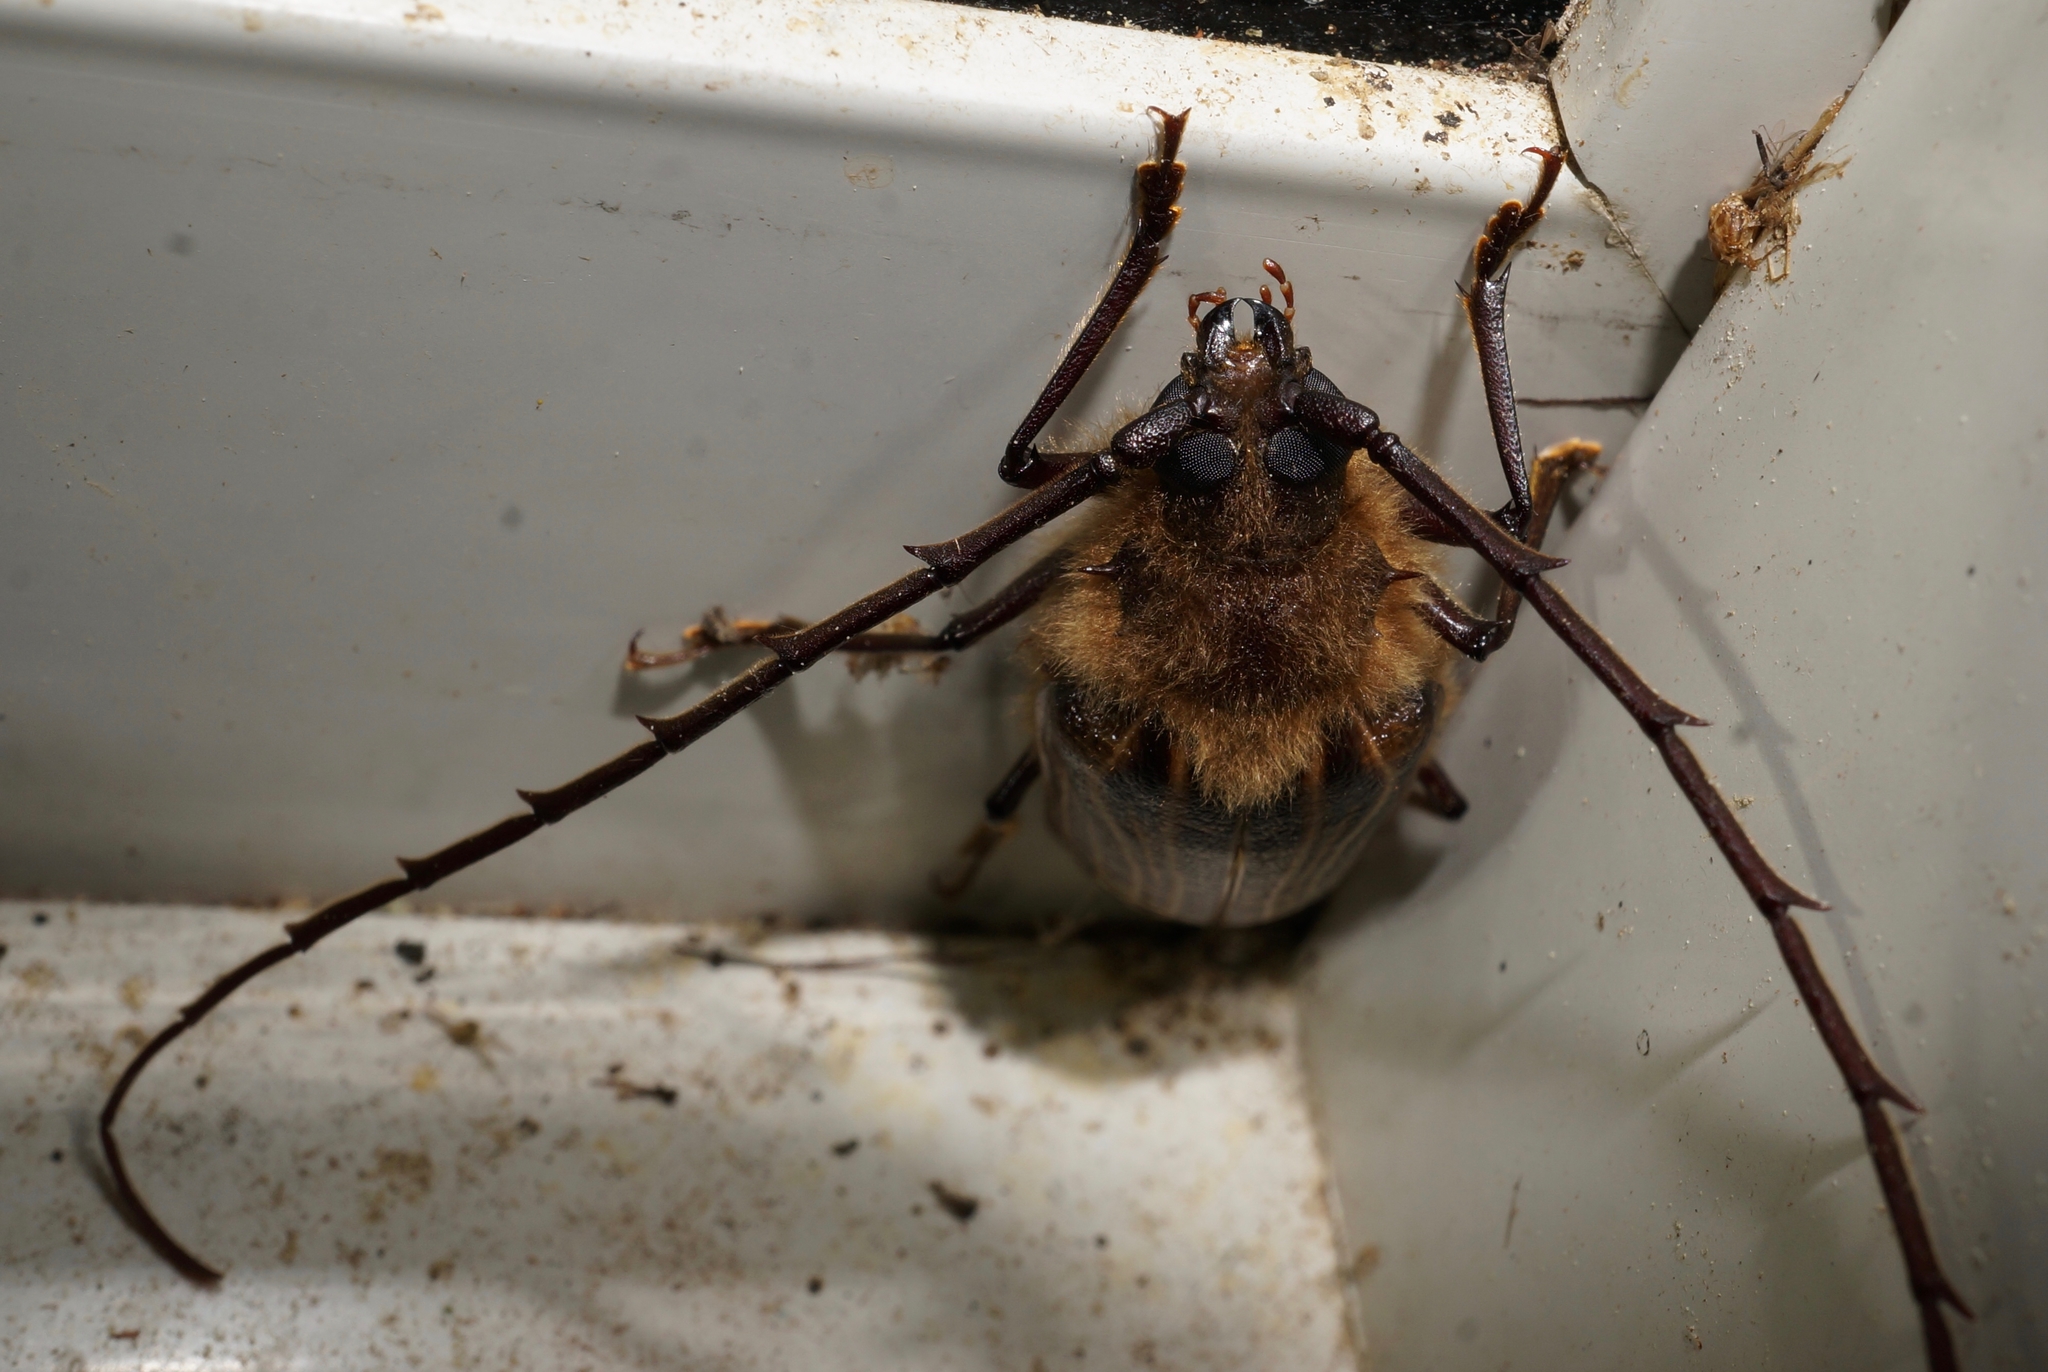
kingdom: Animalia
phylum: Arthropoda
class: Insecta
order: Coleoptera
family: Cerambycidae
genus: Prionoplus
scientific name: Prionoplus reticularis
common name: Huhu beetle
